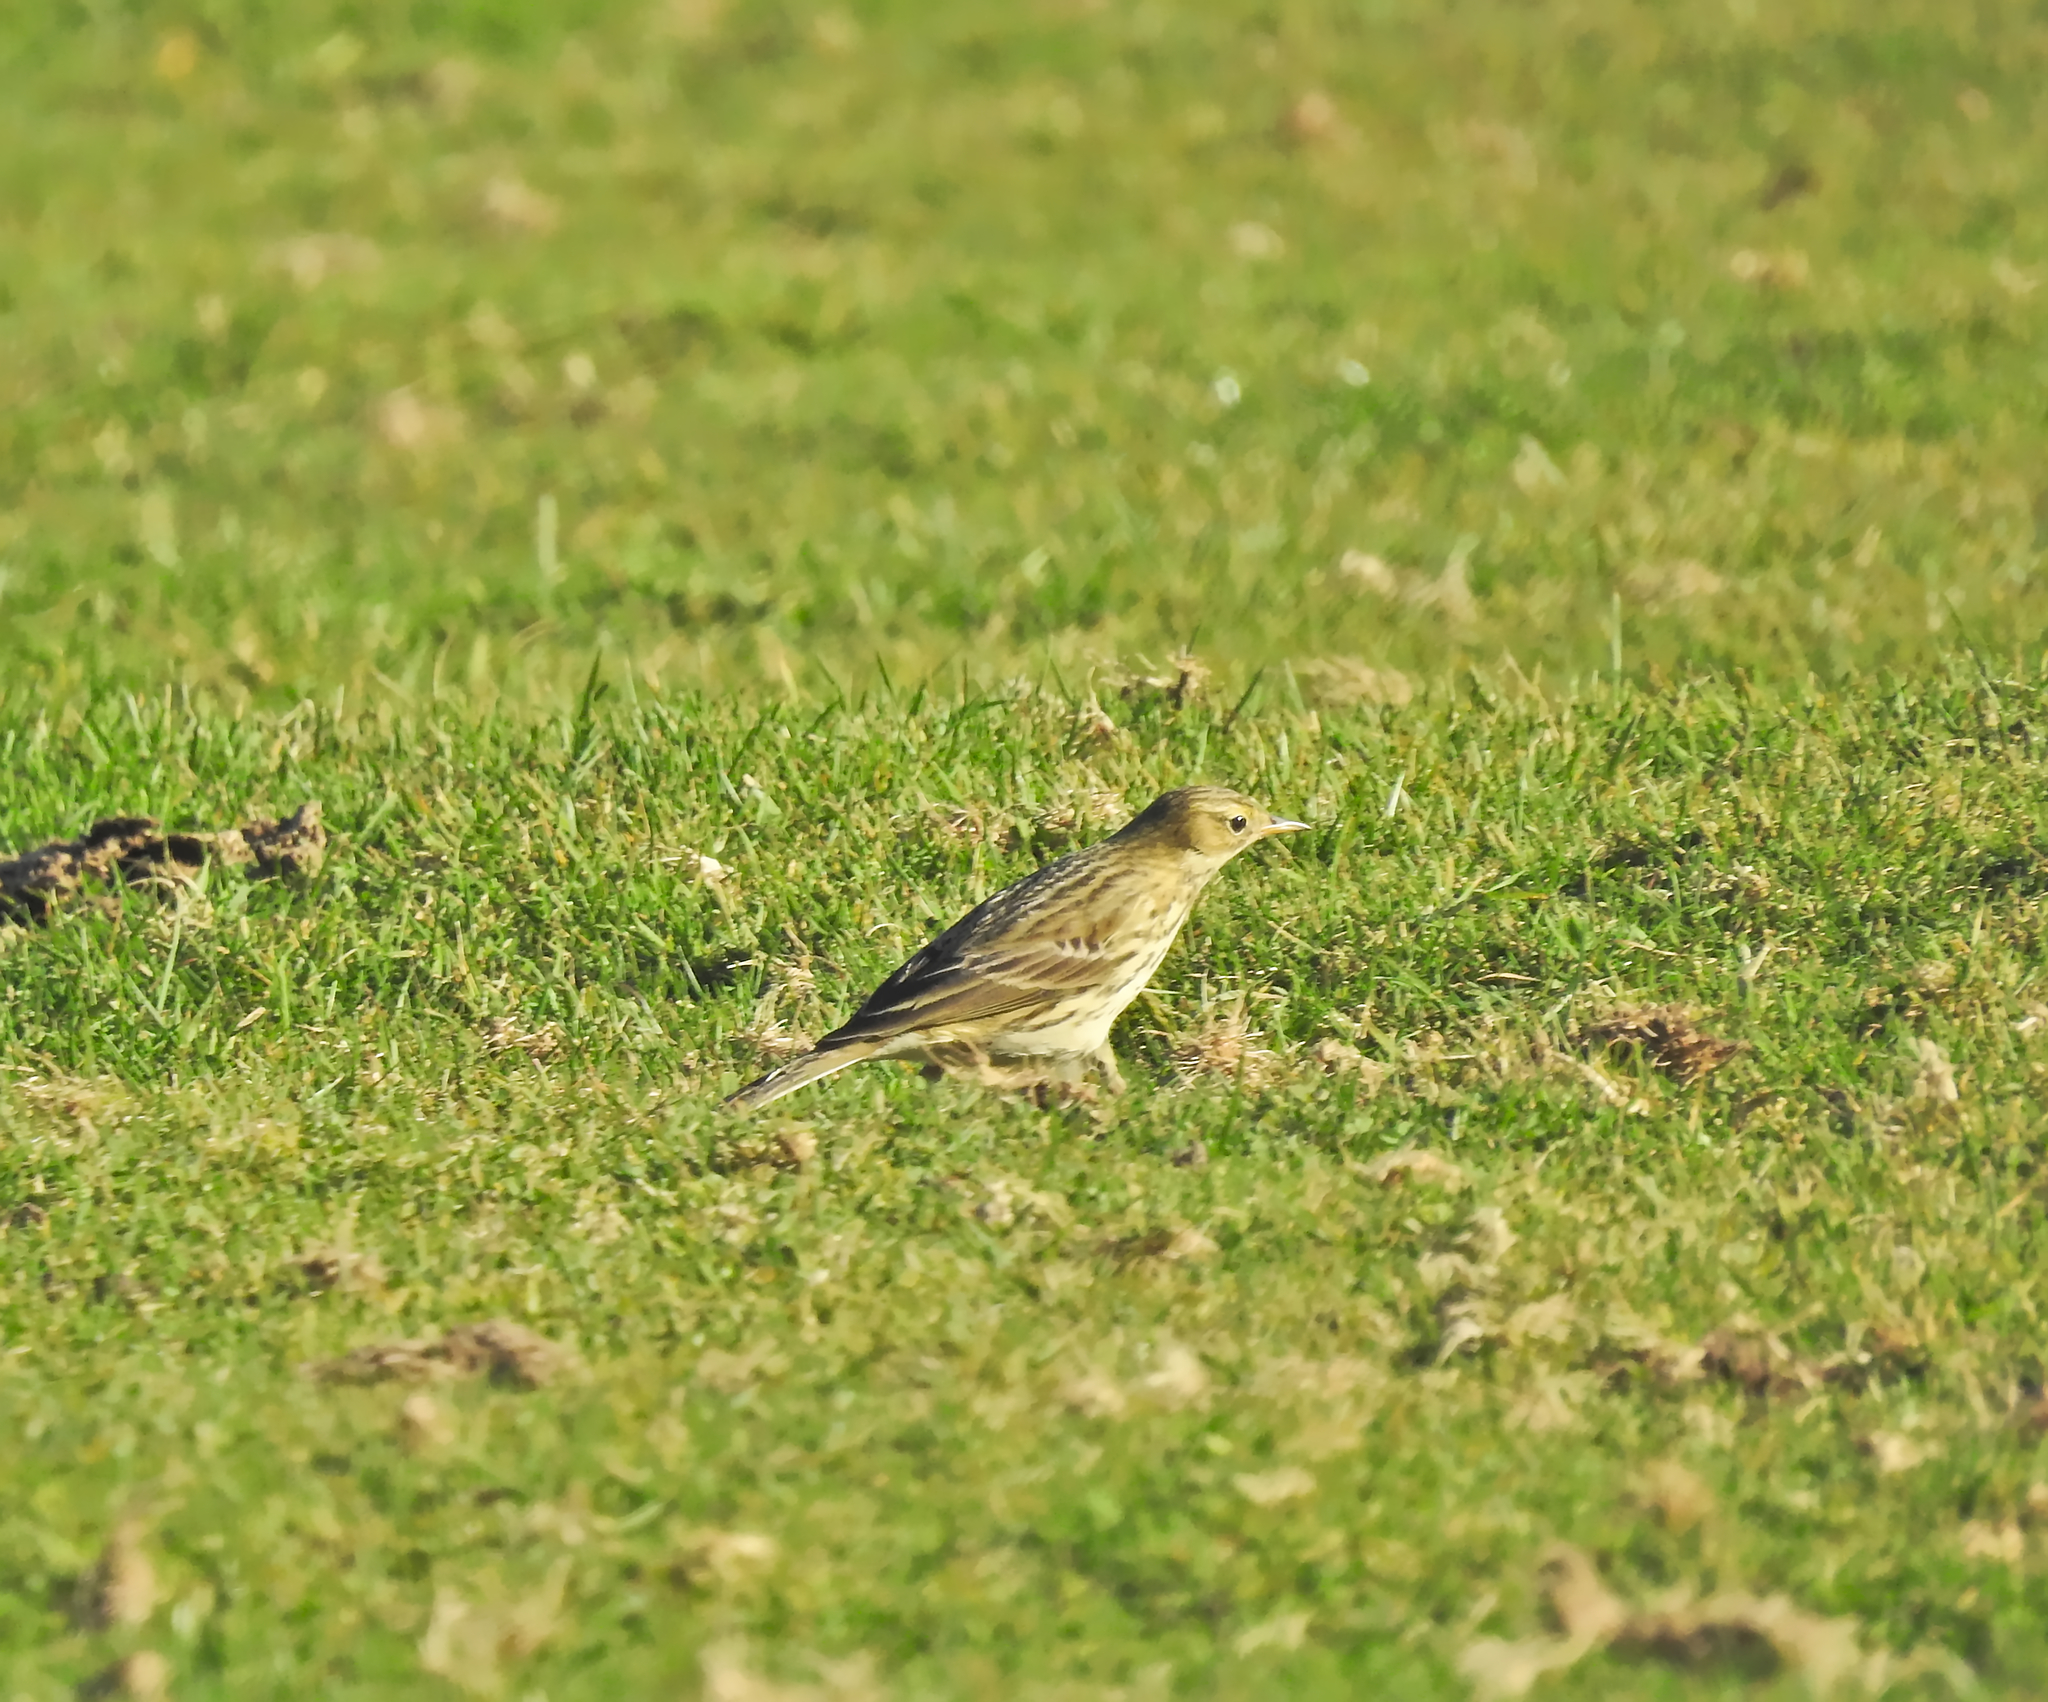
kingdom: Animalia
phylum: Chordata
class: Aves
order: Passeriformes
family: Motacillidae
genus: Anthus
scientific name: Anthus pratensis
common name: Meadow pipit
